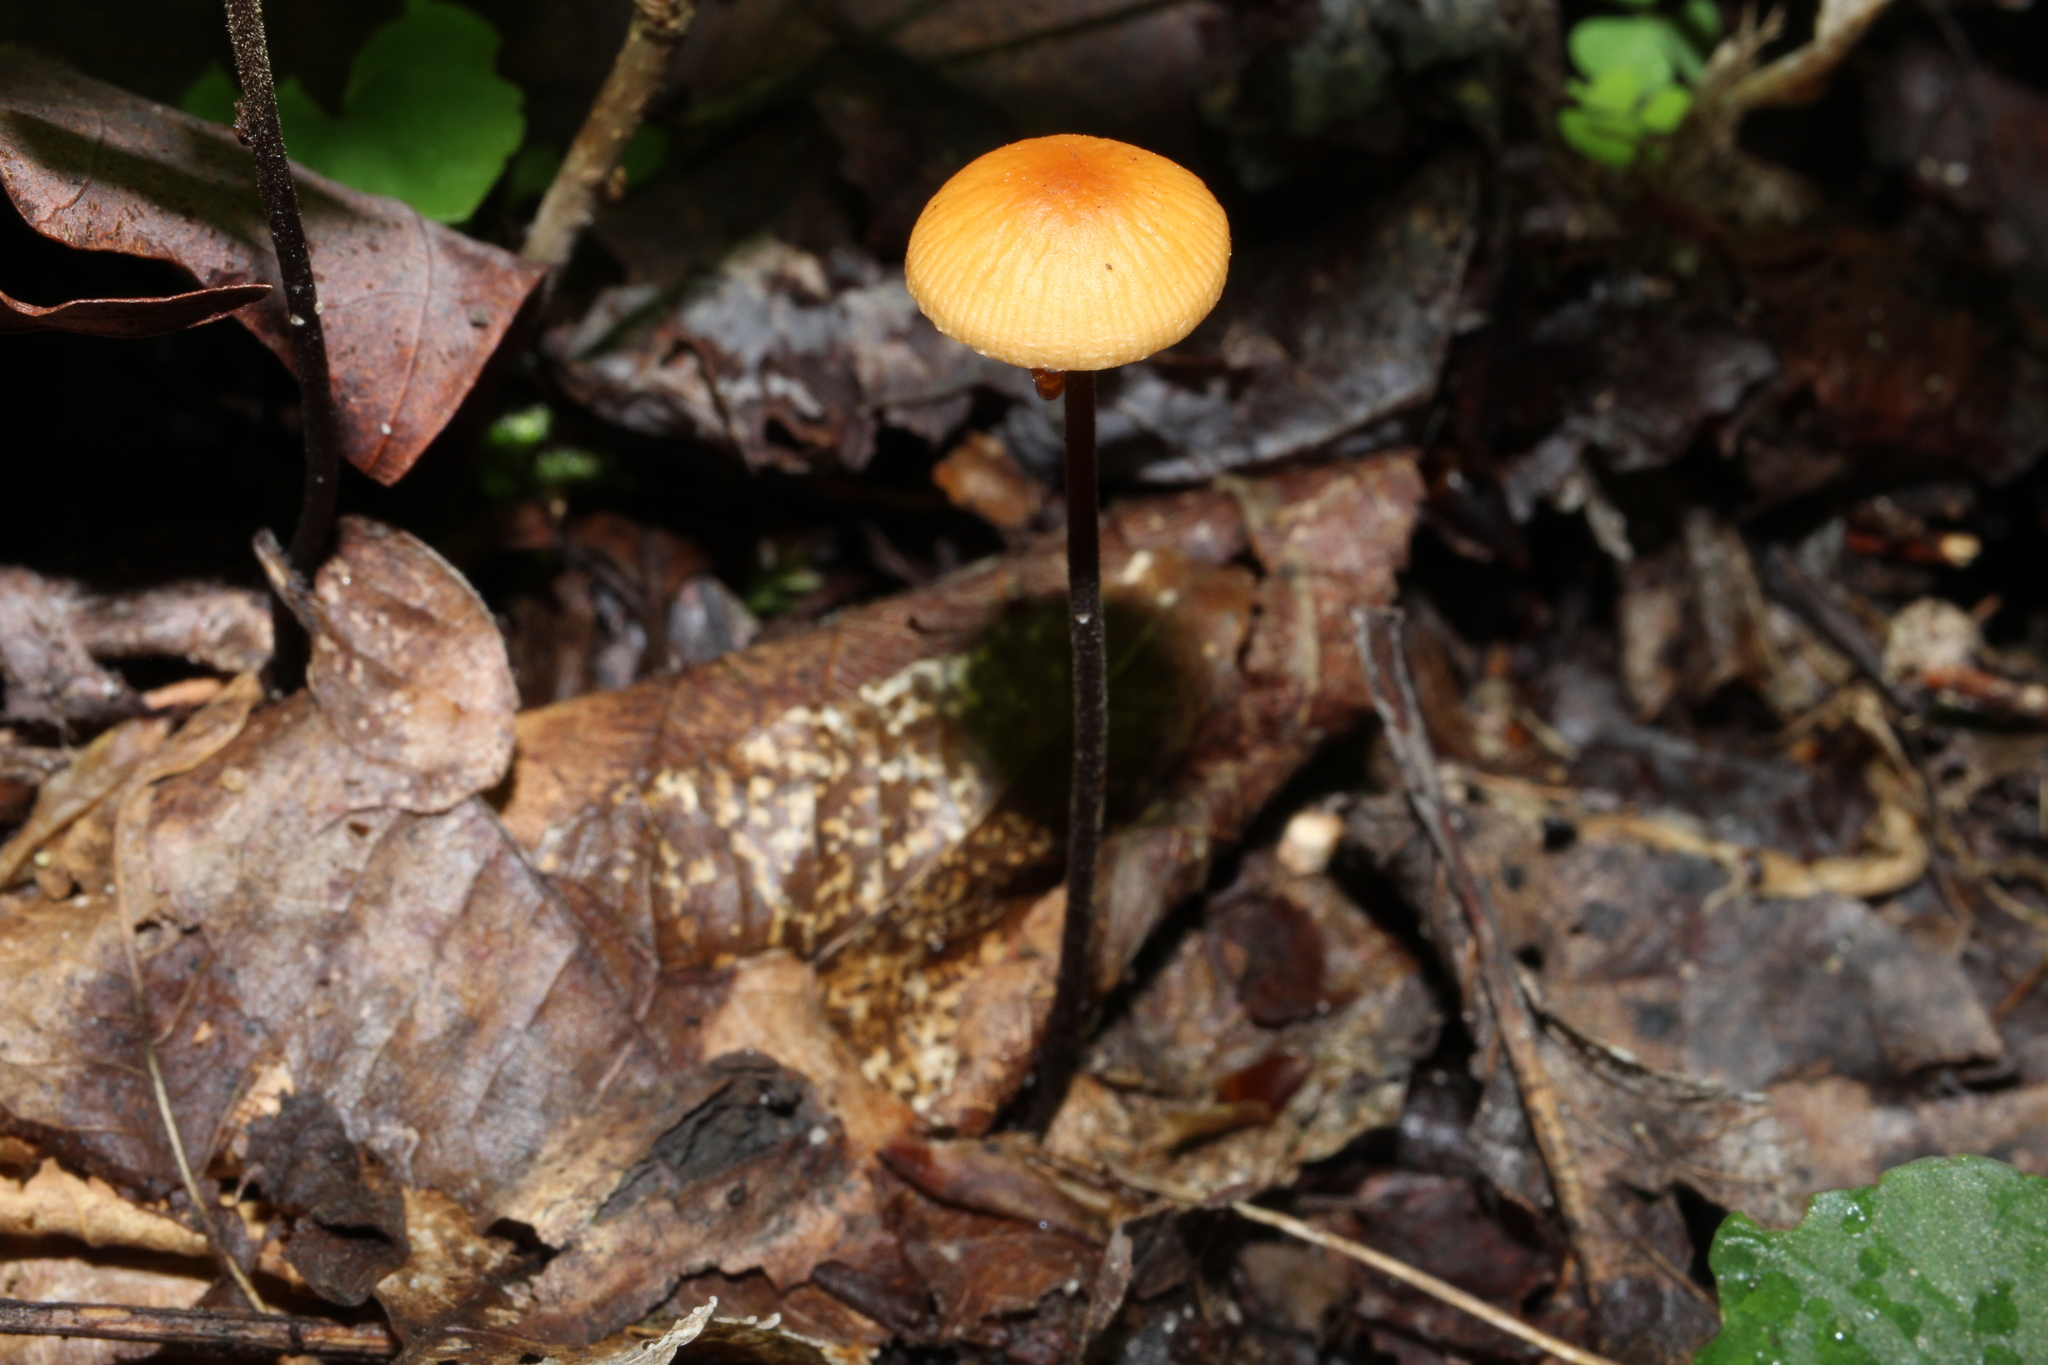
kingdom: Fungi
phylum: Basidiomycota
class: Agaricomycetes
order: Agaricales
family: Physalacriaceae
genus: Rhizomarasmius
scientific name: Rhizomarasmius pyrrhocephalus
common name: Hairy long stem marasmius
